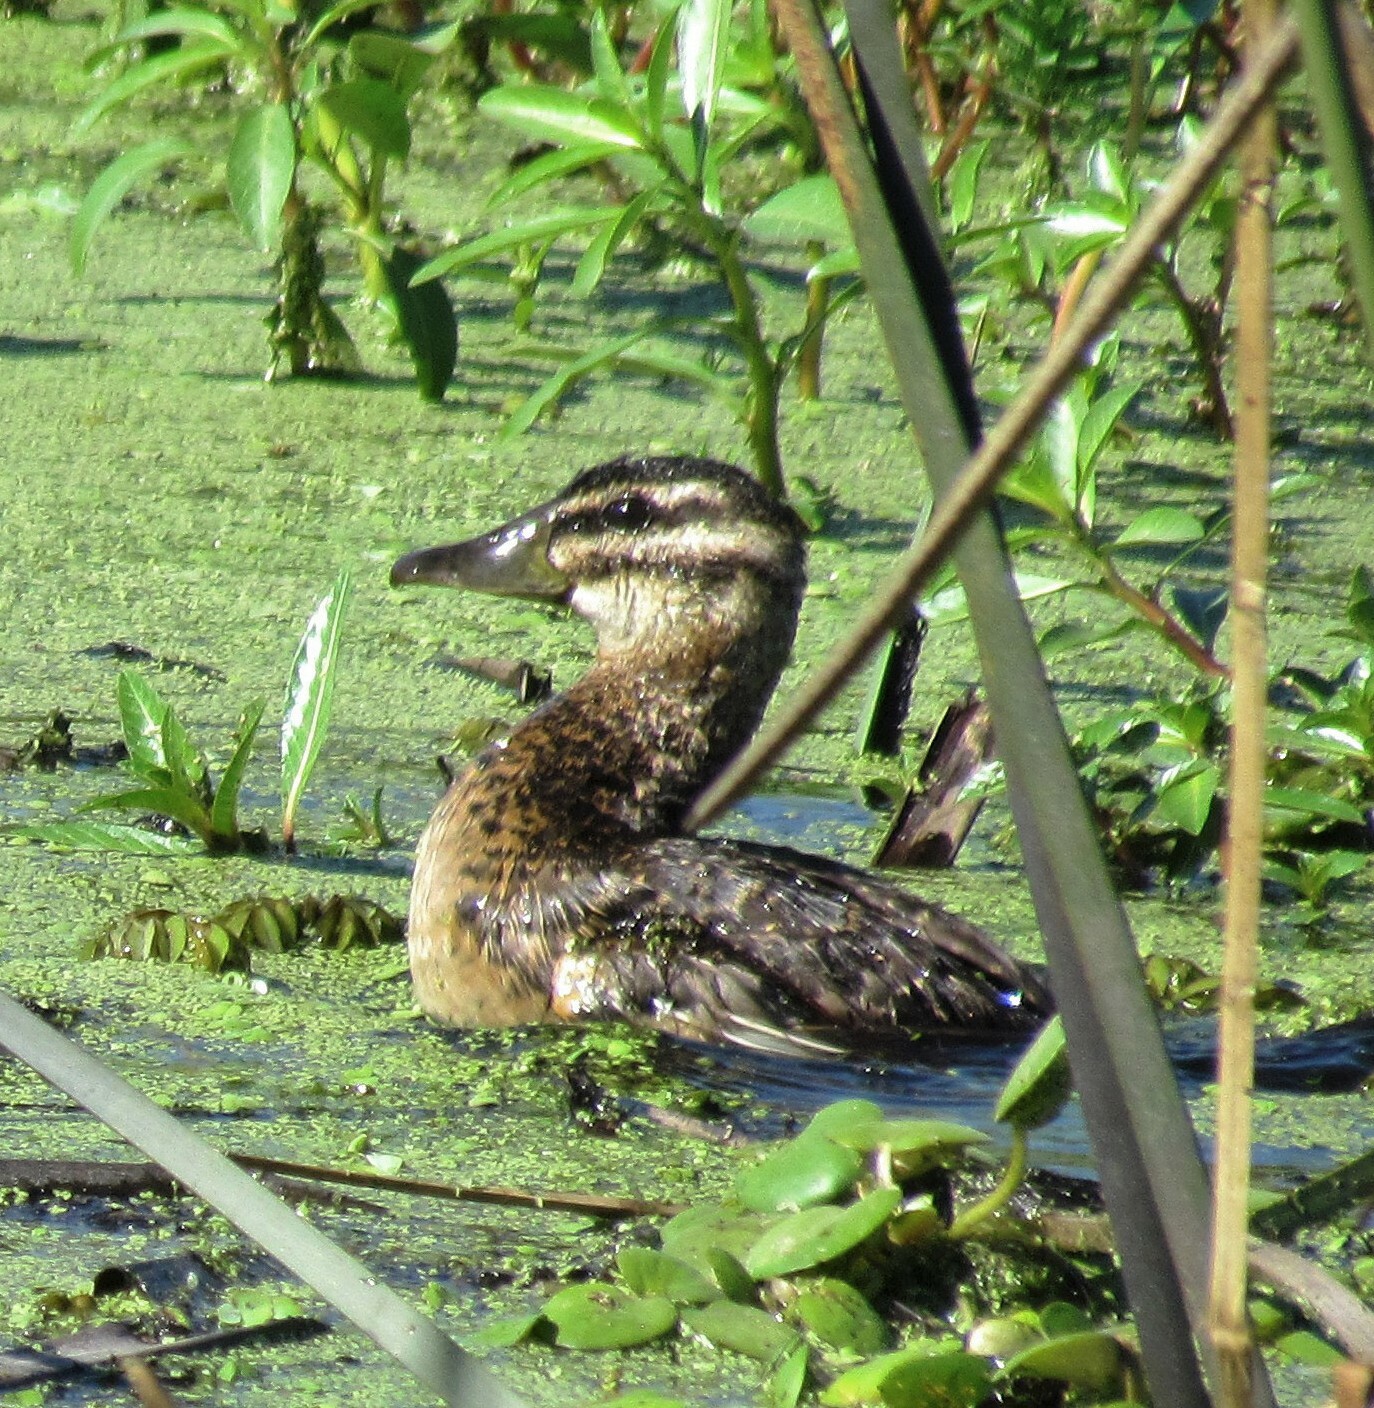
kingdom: Animalia
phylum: Chordata
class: Aves
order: Anseriformes
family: Anatidae
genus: Nomonyx
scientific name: Nomonyx dominicus
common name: Masked duck
